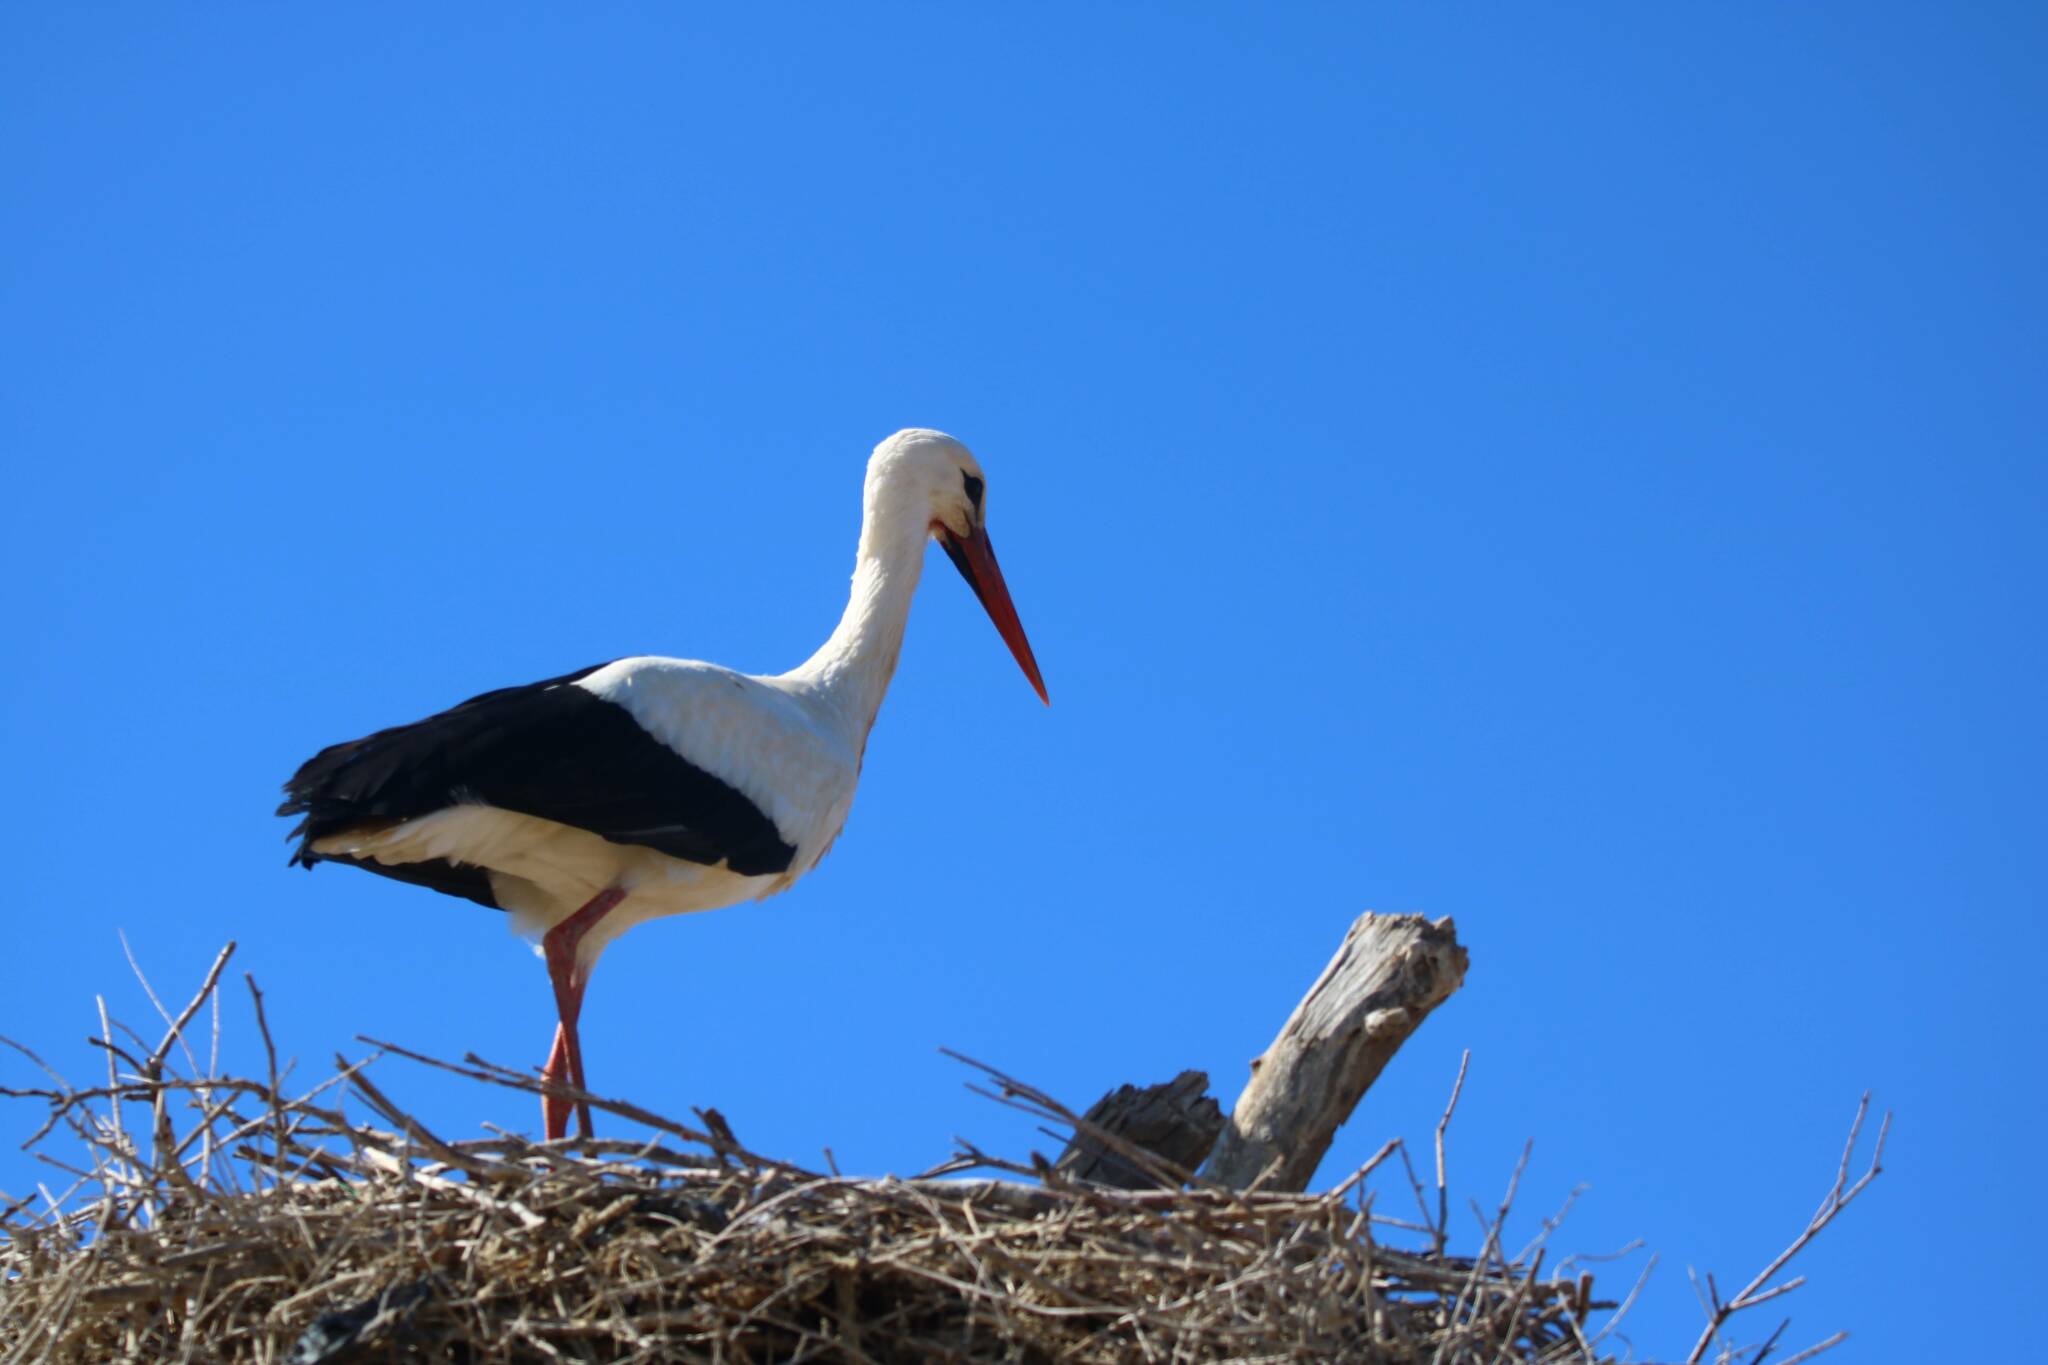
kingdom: Animalia
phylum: Chordata
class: Aves
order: Ciconiiformes
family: Ciconiidae
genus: Ciconia
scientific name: Ciconia ciconia
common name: White stork
